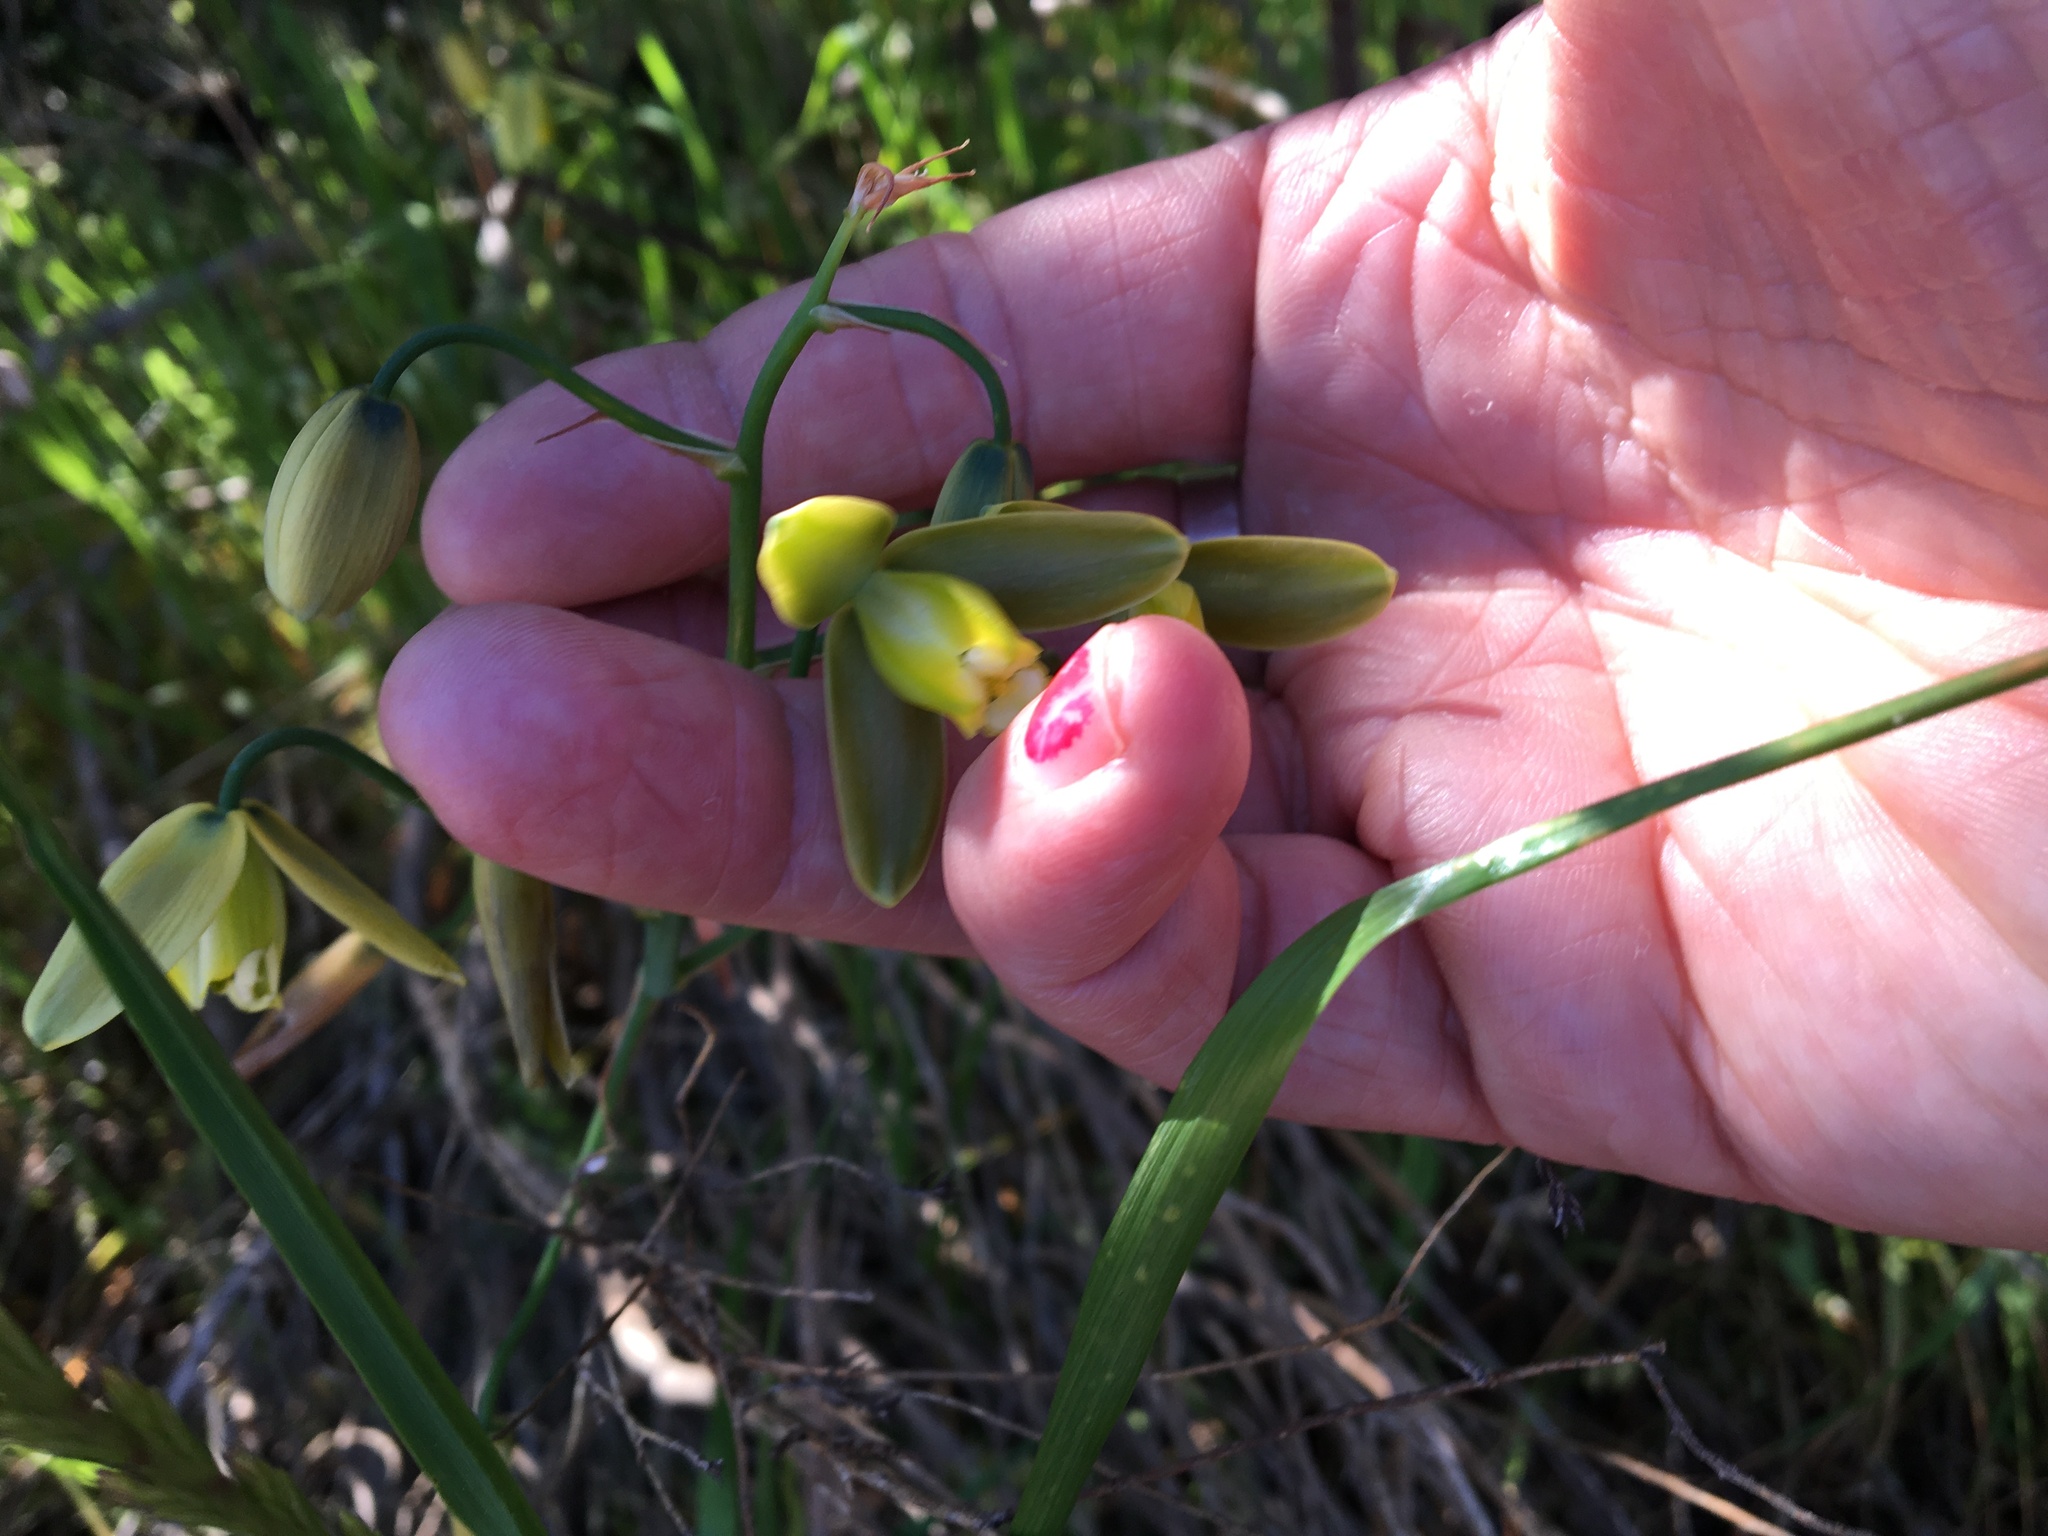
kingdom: Plantae
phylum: Tracheophyta
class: Liliopsida
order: Asparagales
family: Asparagaceae
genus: Albuca
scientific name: Albuca cooperi
